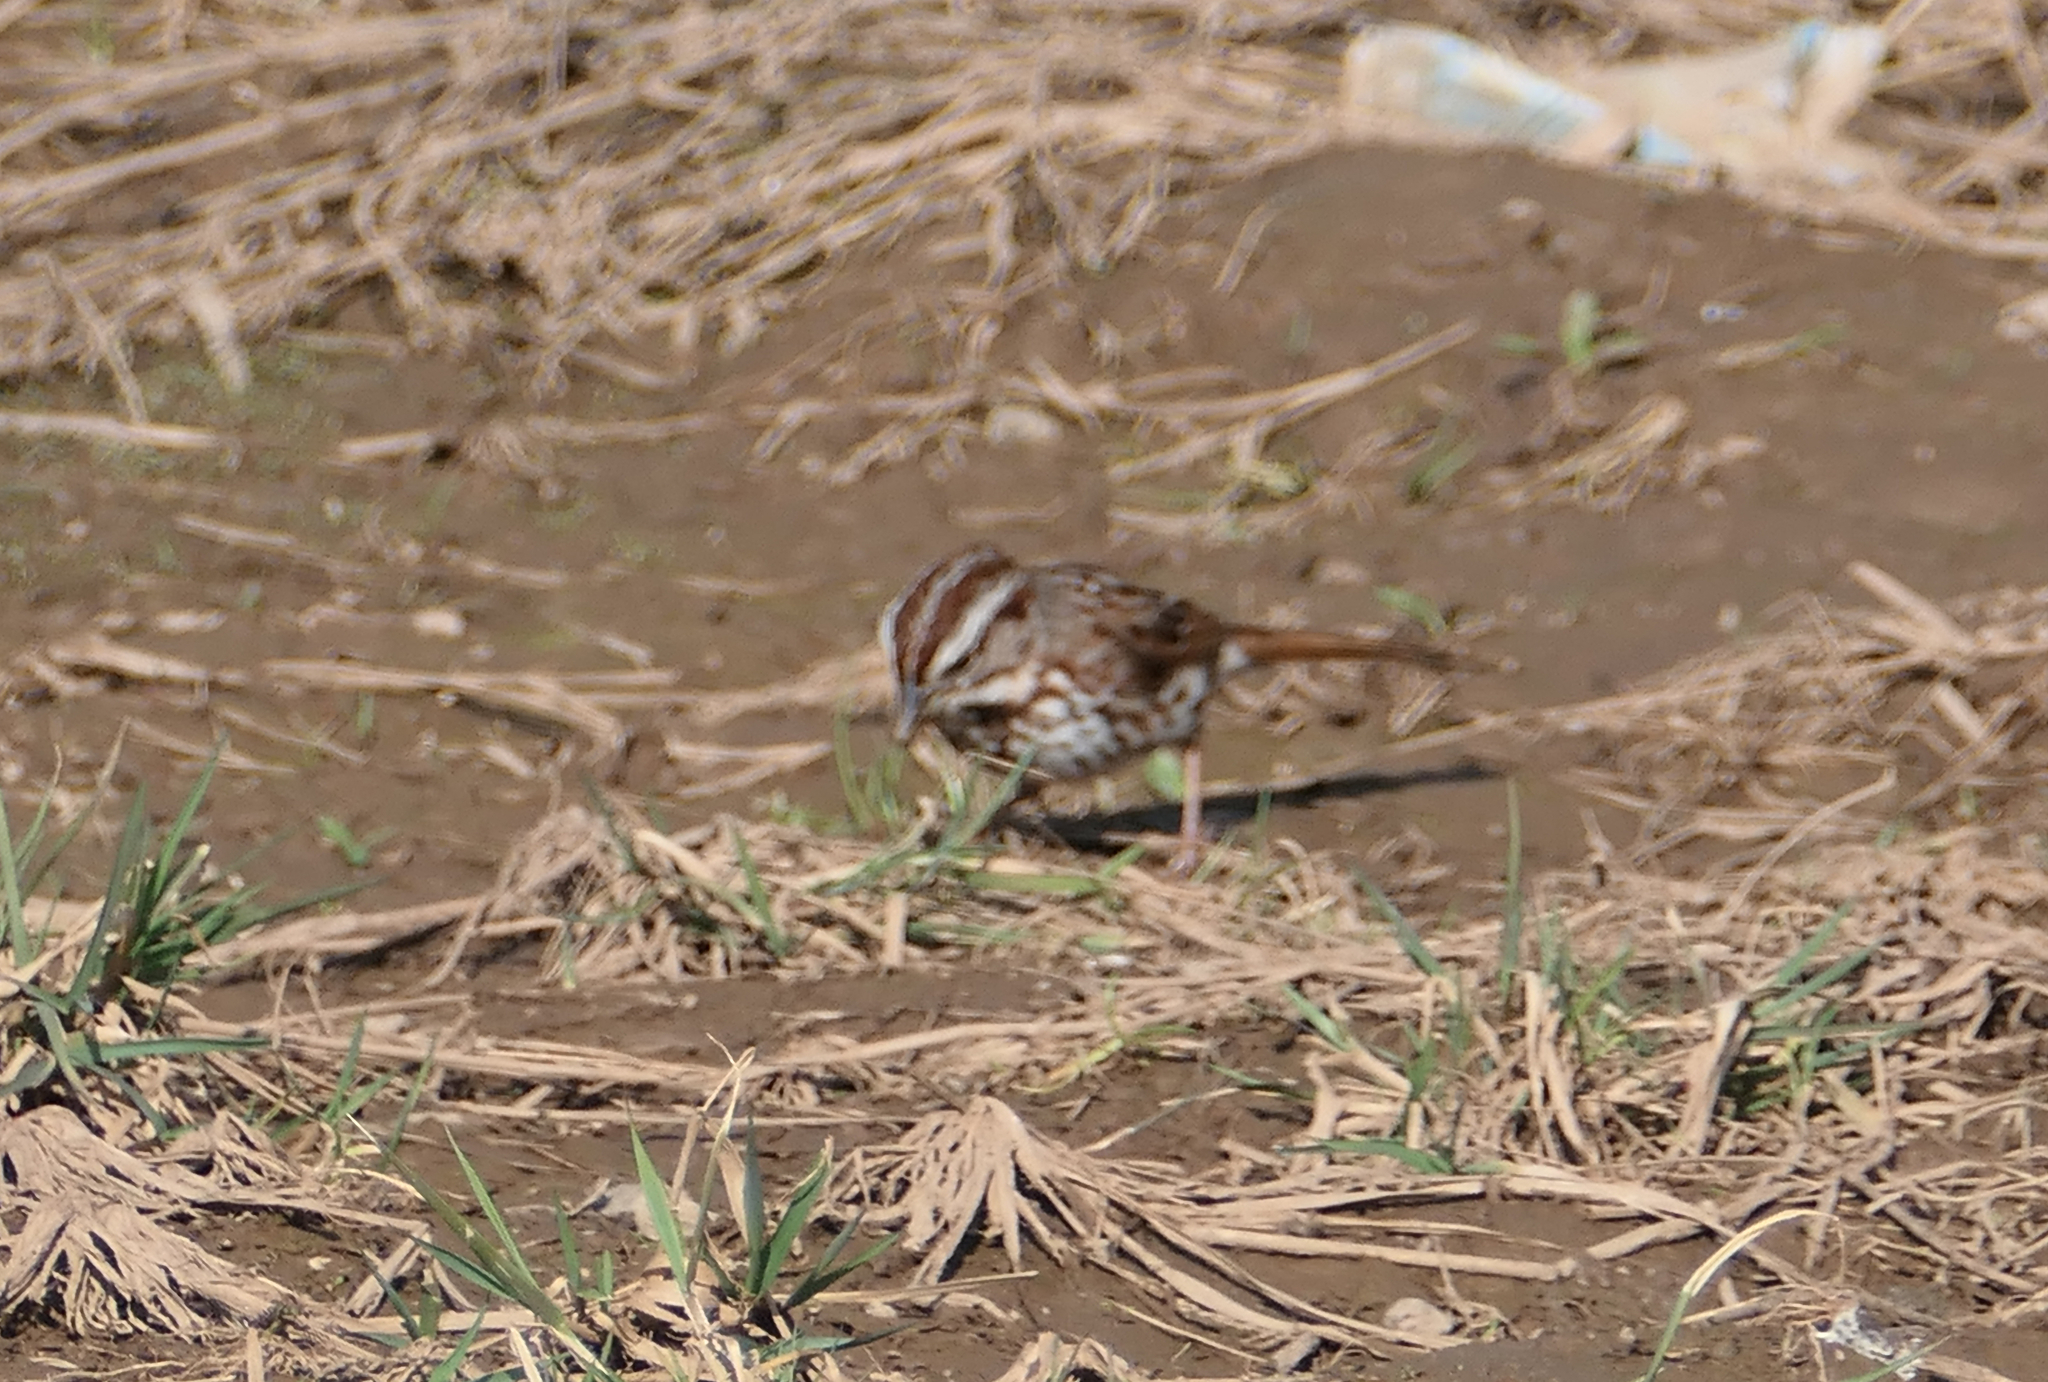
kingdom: Animalia
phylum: Chordata
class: Aves
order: Passeriformes
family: Passerellidae
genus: Melospiza
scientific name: Melospiza melodia
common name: Song sparrow
